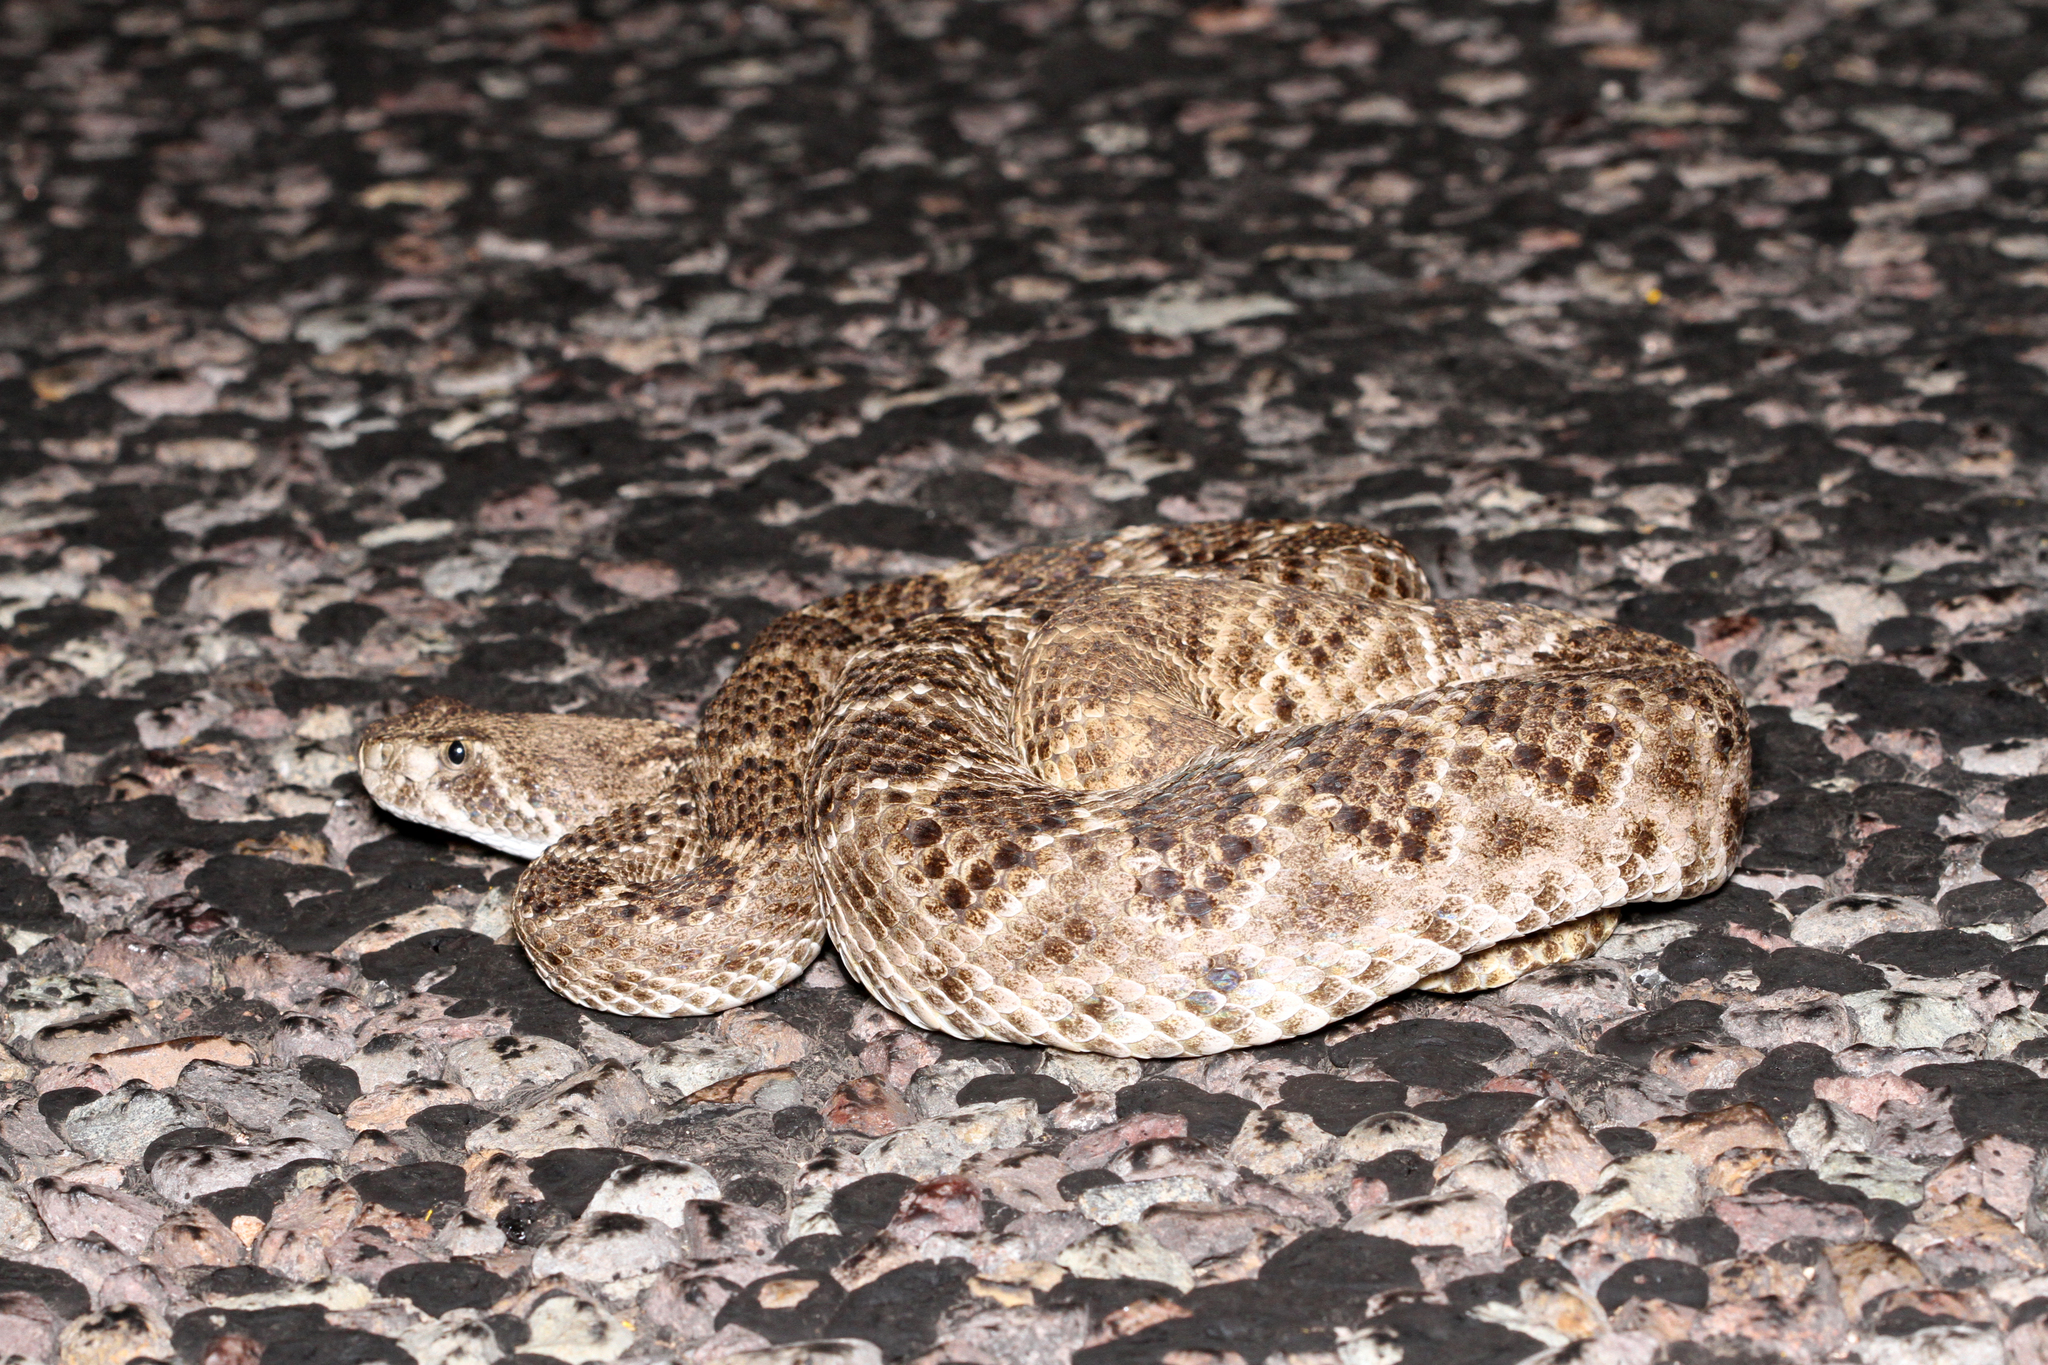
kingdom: Animalia
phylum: Chordata
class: Squamata
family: Viperidae
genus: Crotalus
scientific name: Crotalus atrox
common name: Western diamond-backed rattlesnake
